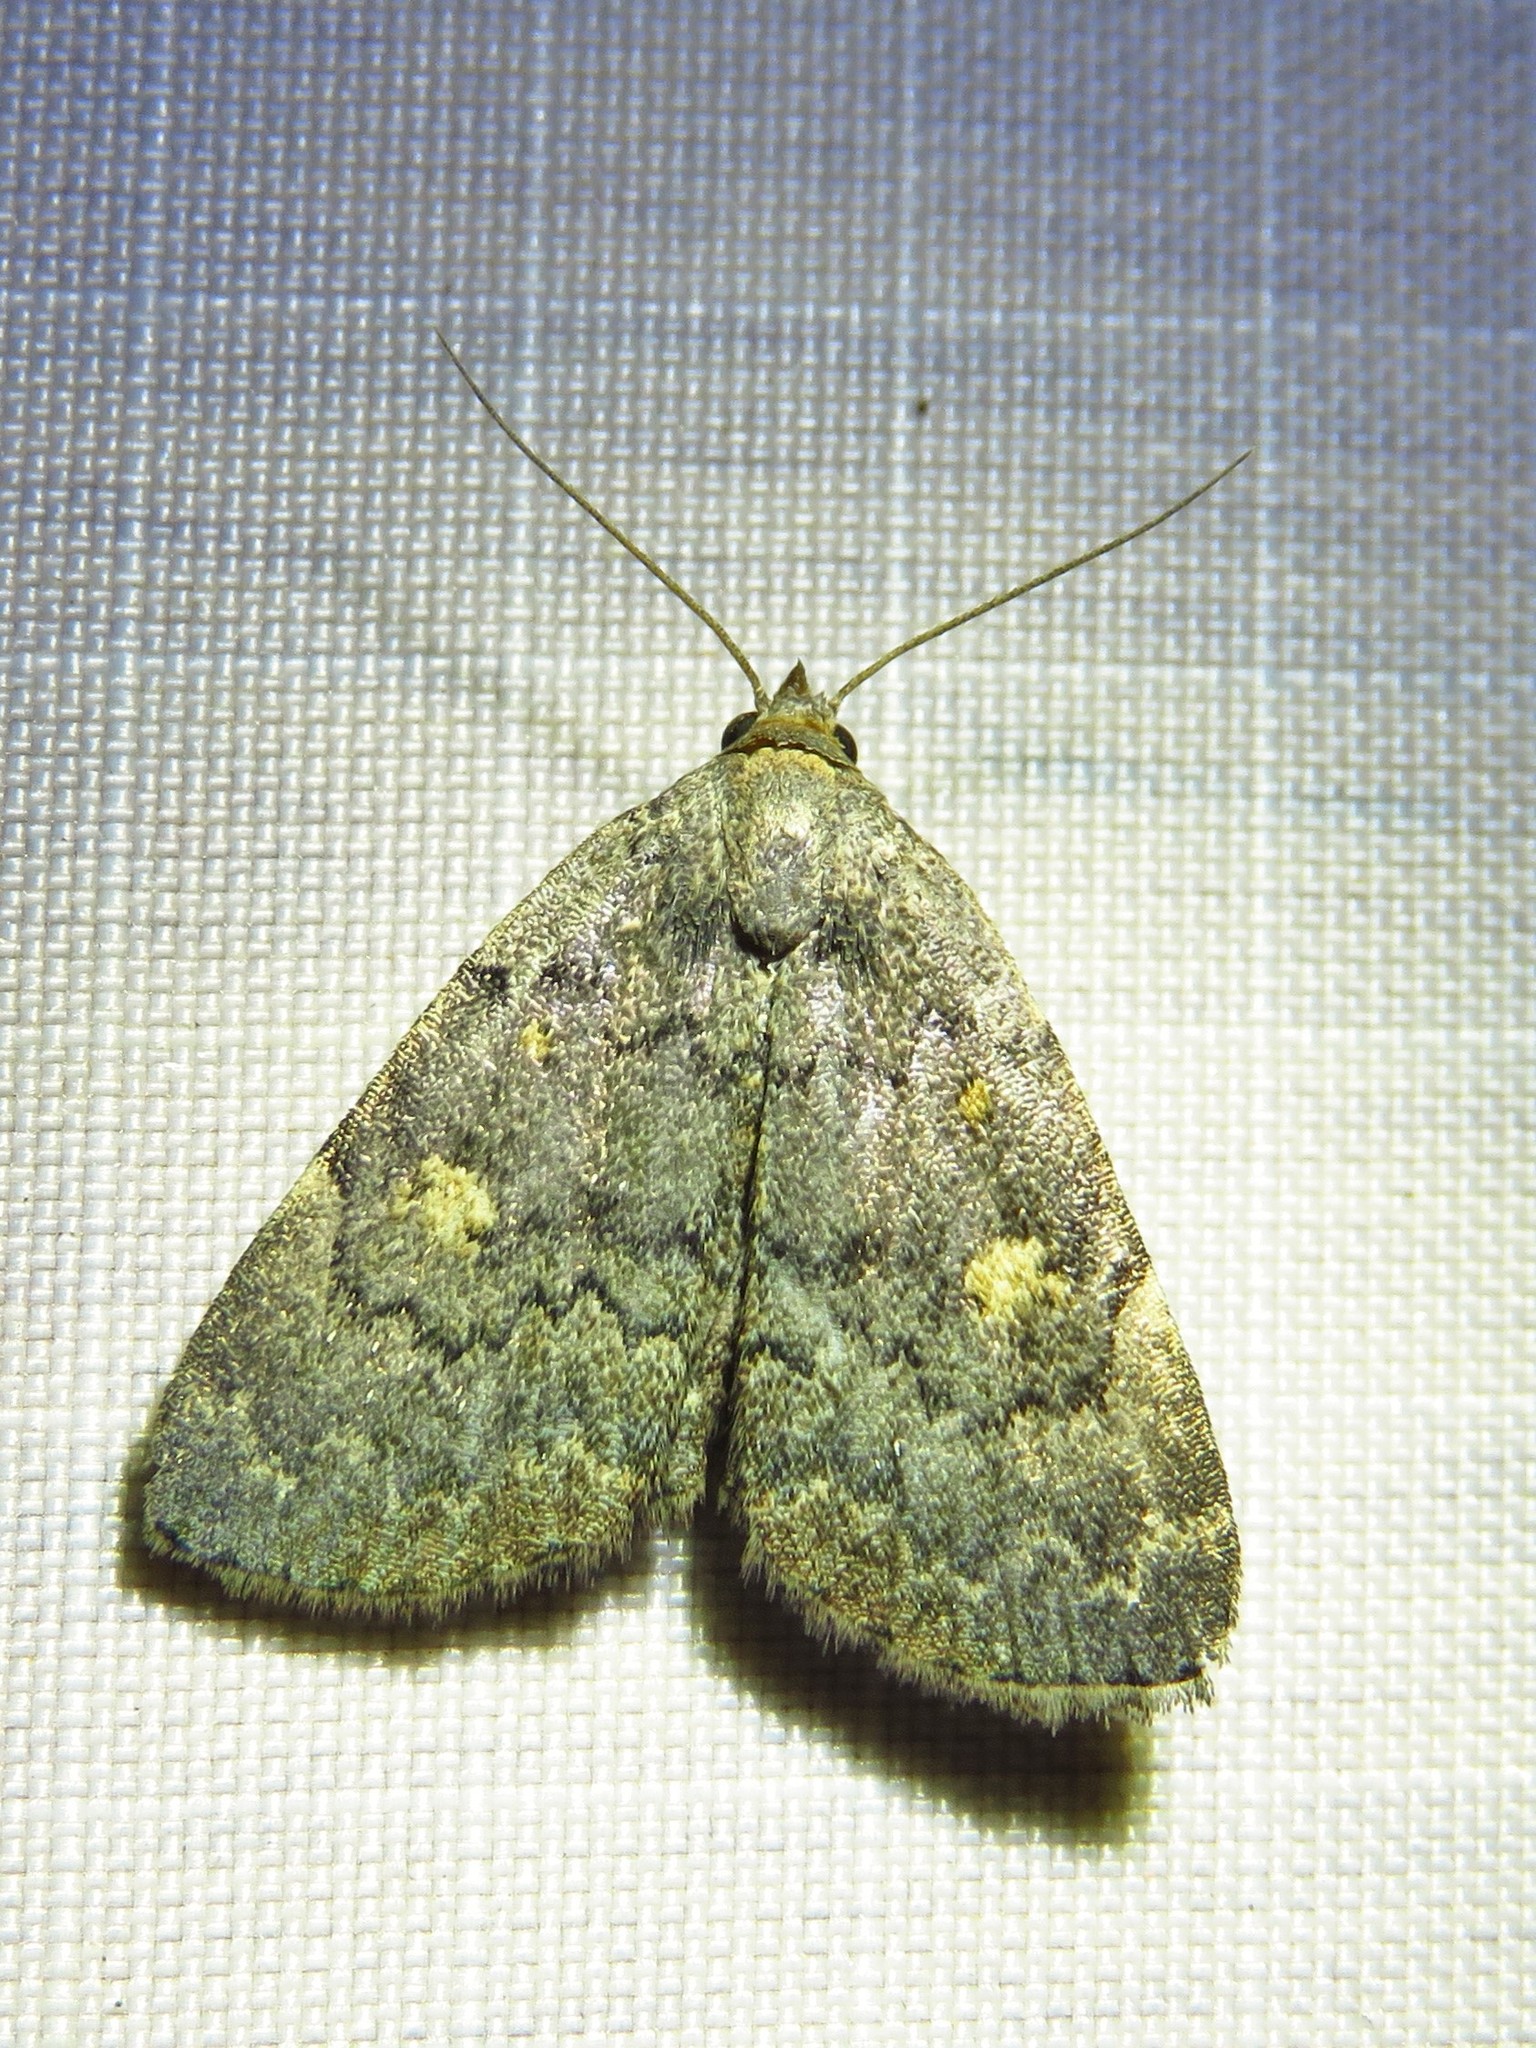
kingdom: Animalia
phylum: Arthropoda
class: Insecta
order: Lepidoptera
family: Erebidae
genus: Idia
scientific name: Idia aemula
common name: Common idia moth
